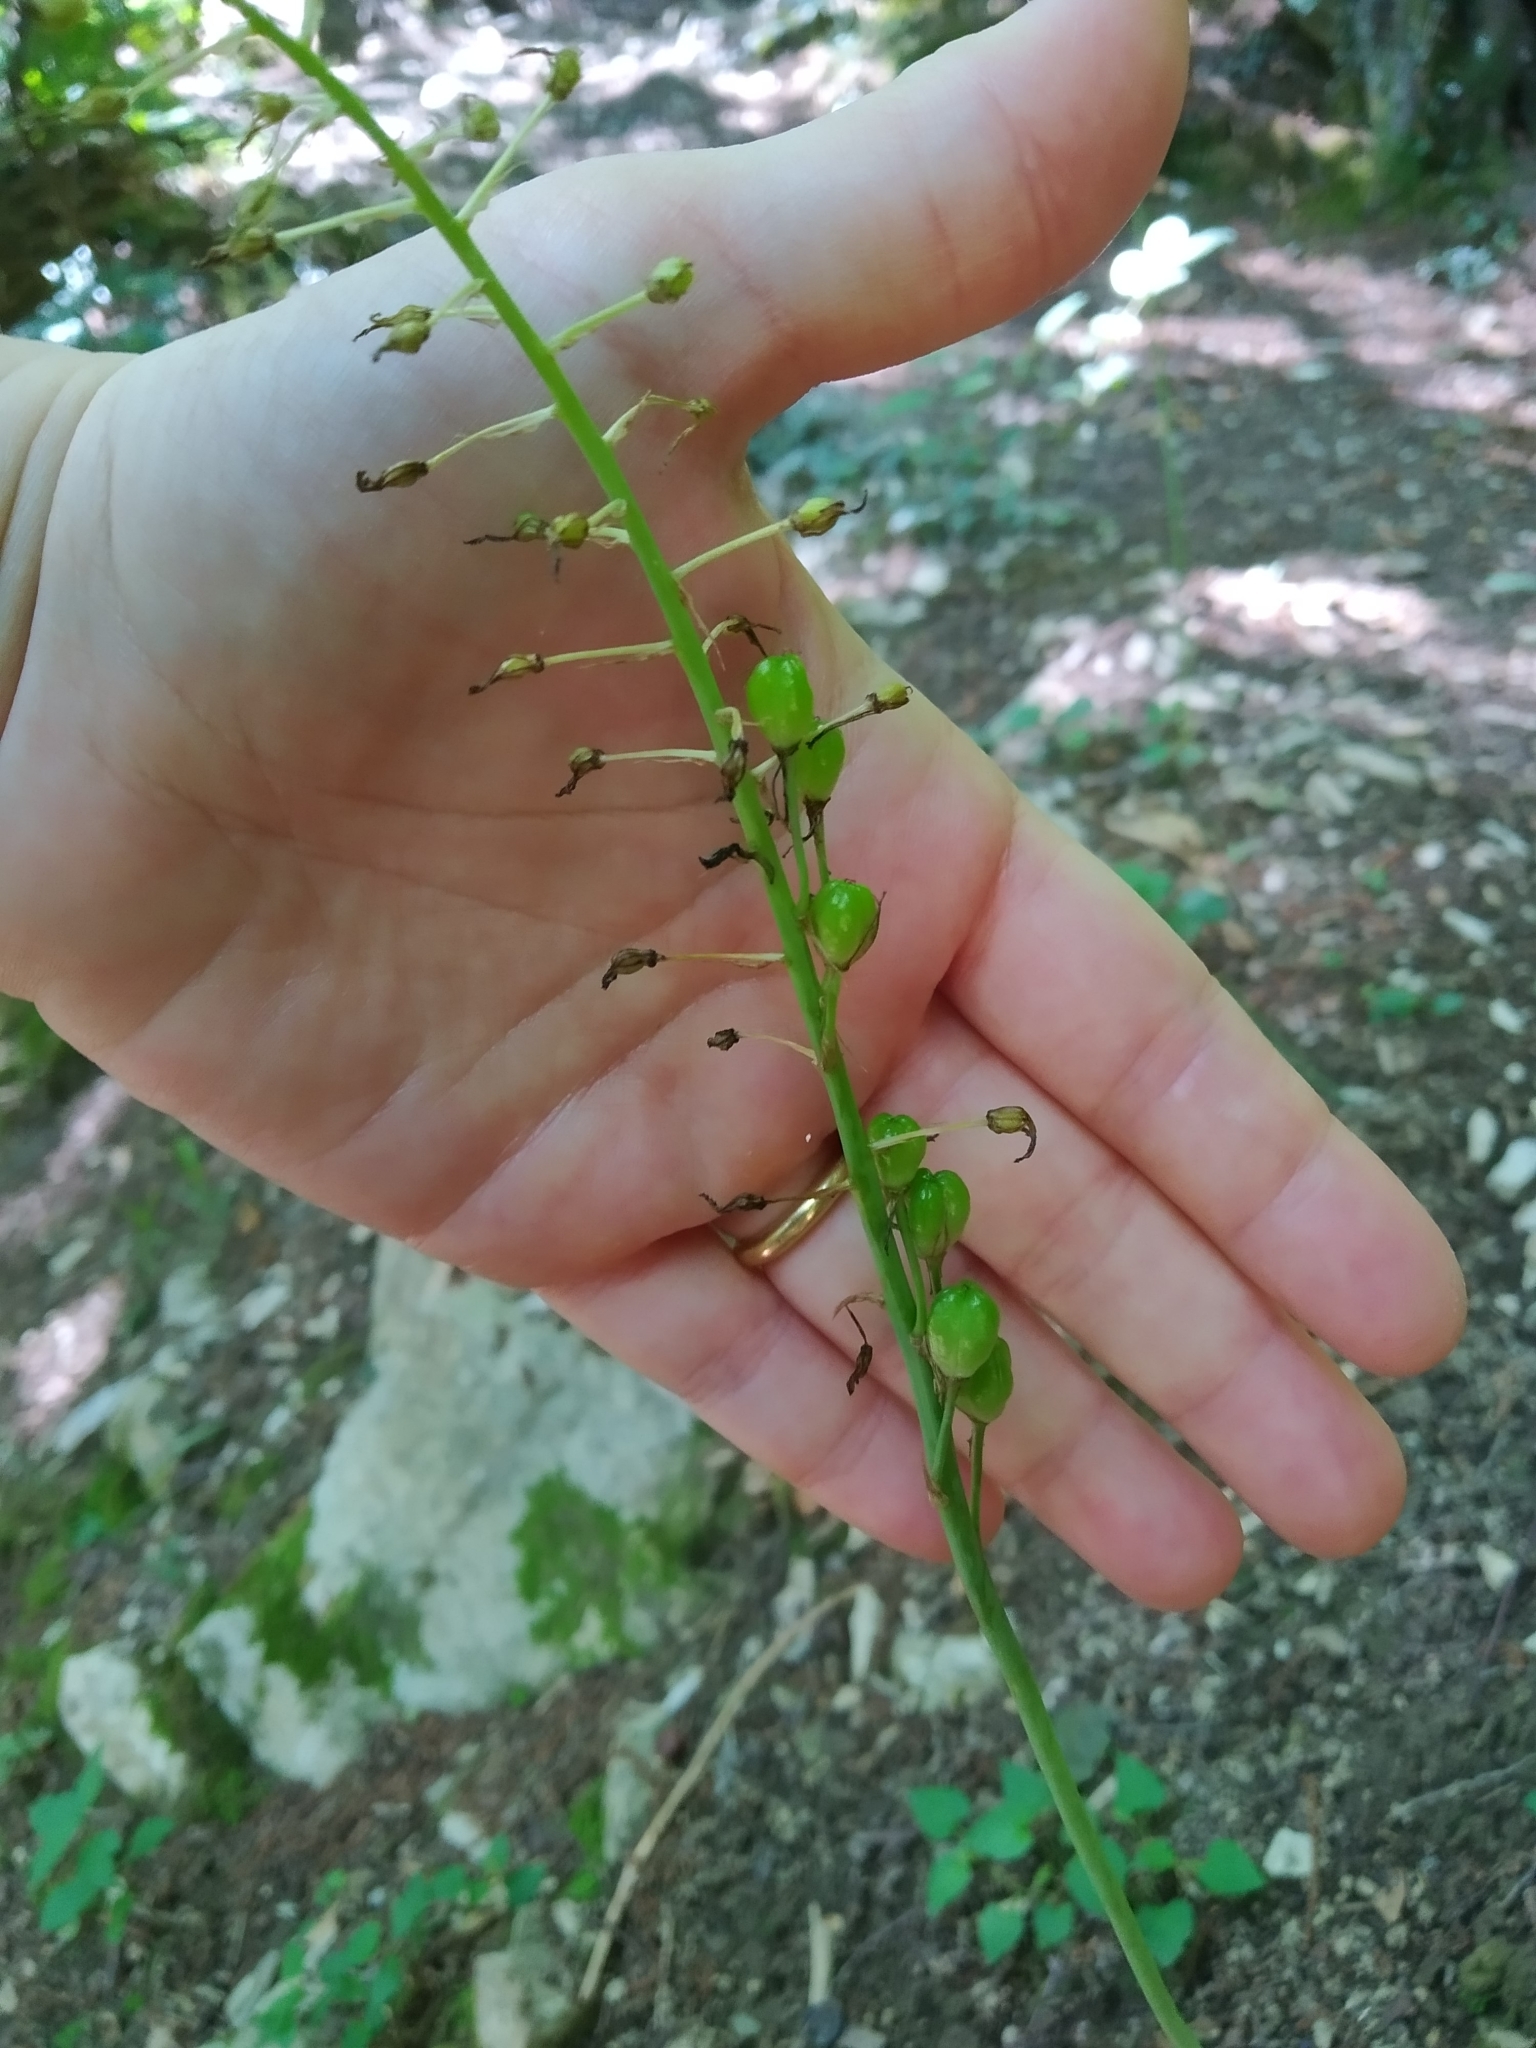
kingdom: Plantae
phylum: Tracheophyta
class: Liliopsida
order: Asparagales
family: Asparagaceae
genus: Muscari
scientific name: Muscari comosum
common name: Tassel hyacinth
